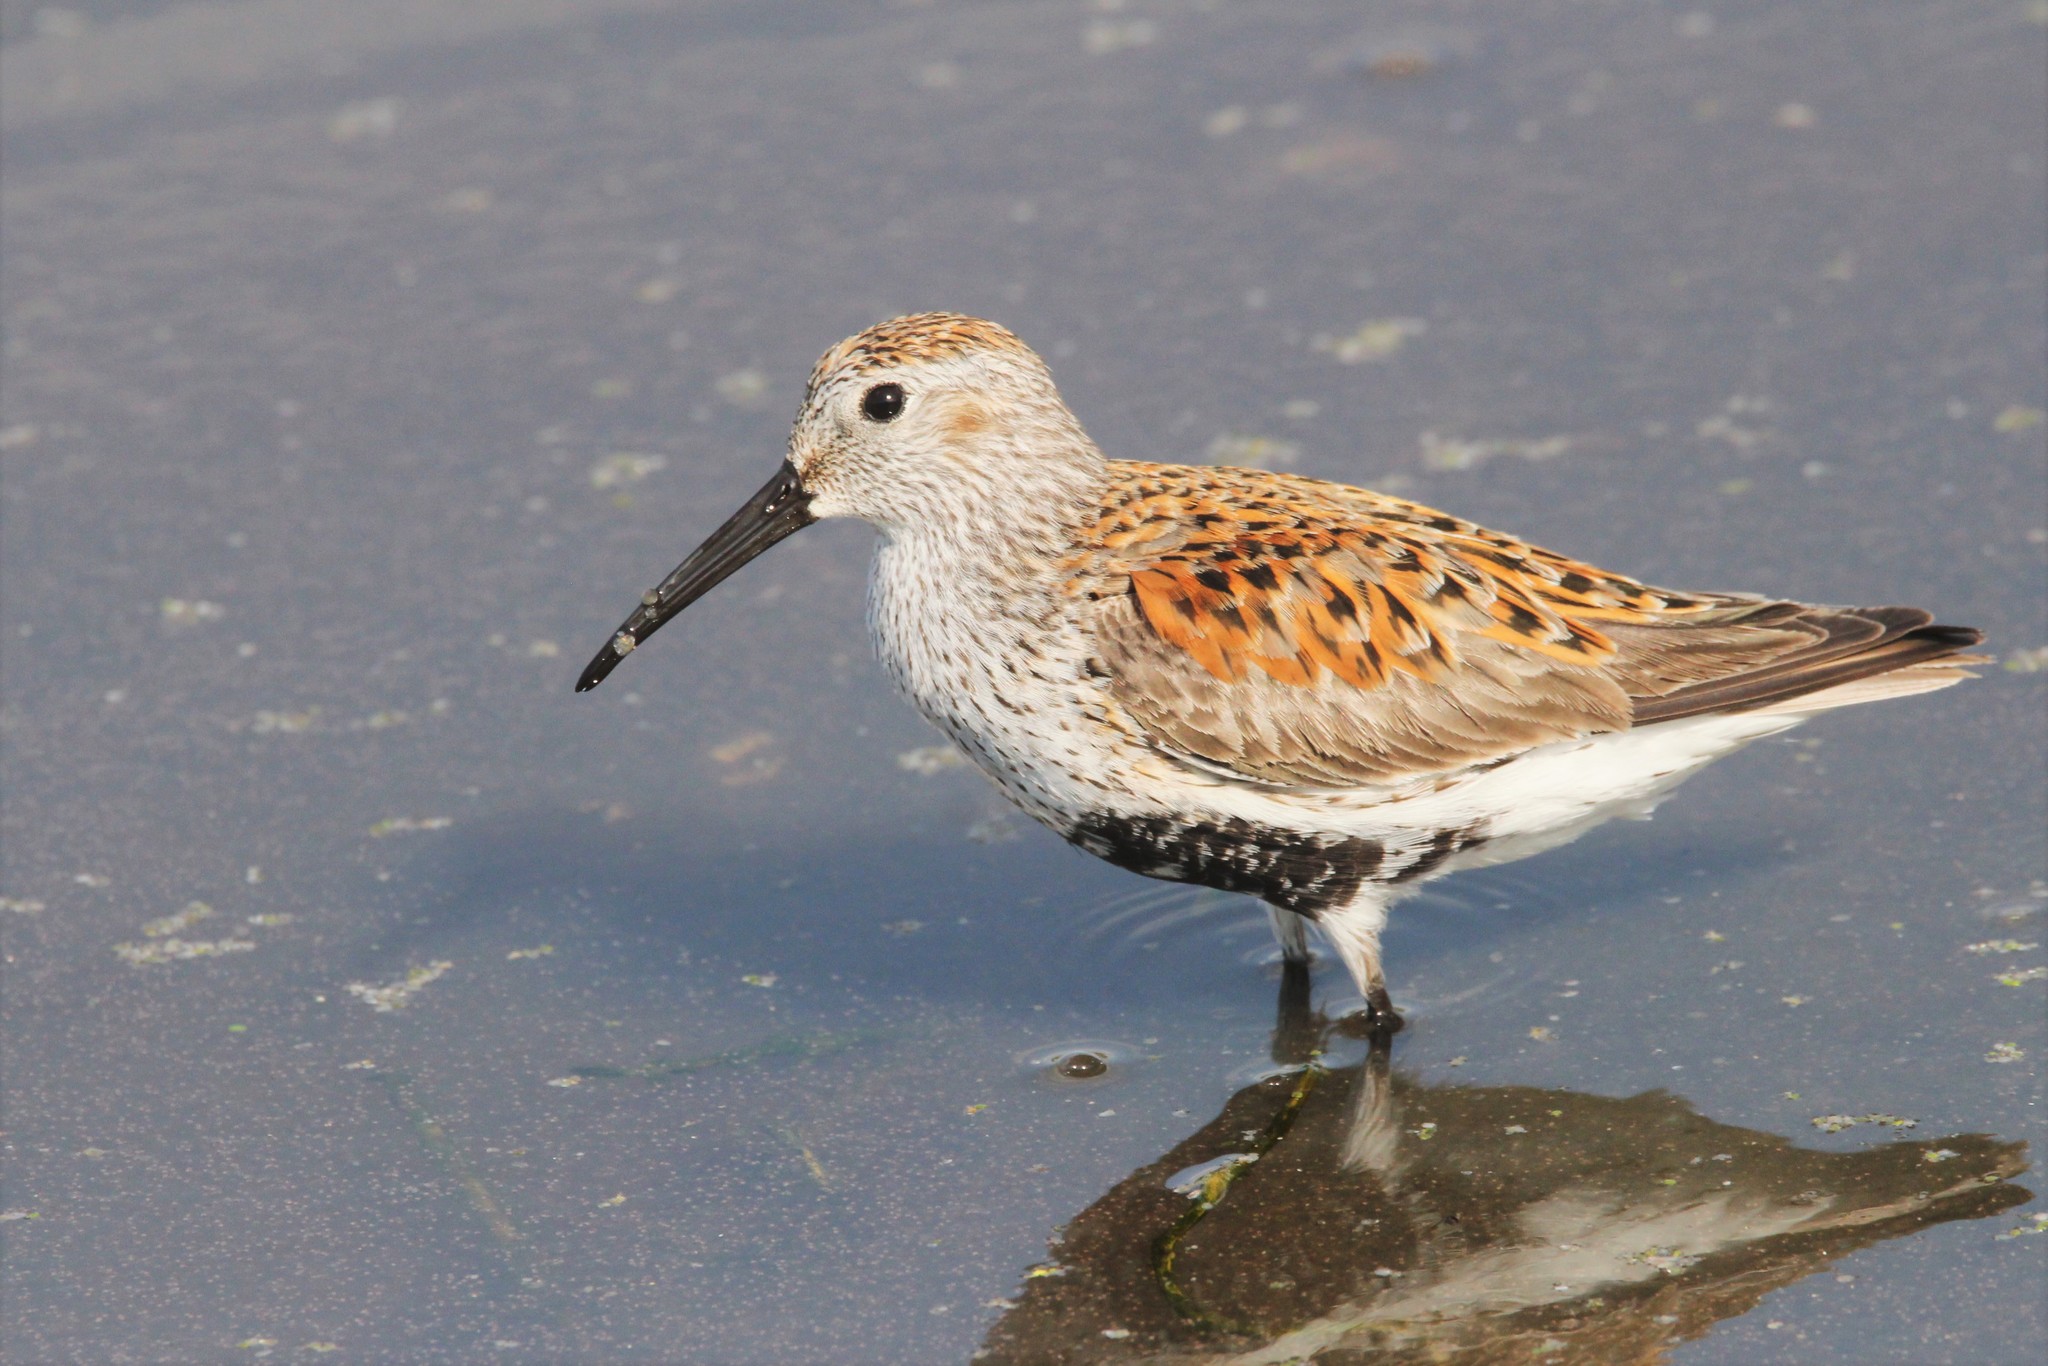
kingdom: Animalia
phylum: Chordata
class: Aves
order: Charadriiformes
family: Scolopacidae
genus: Calidris
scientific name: Calidris alpina
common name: Dunlin
